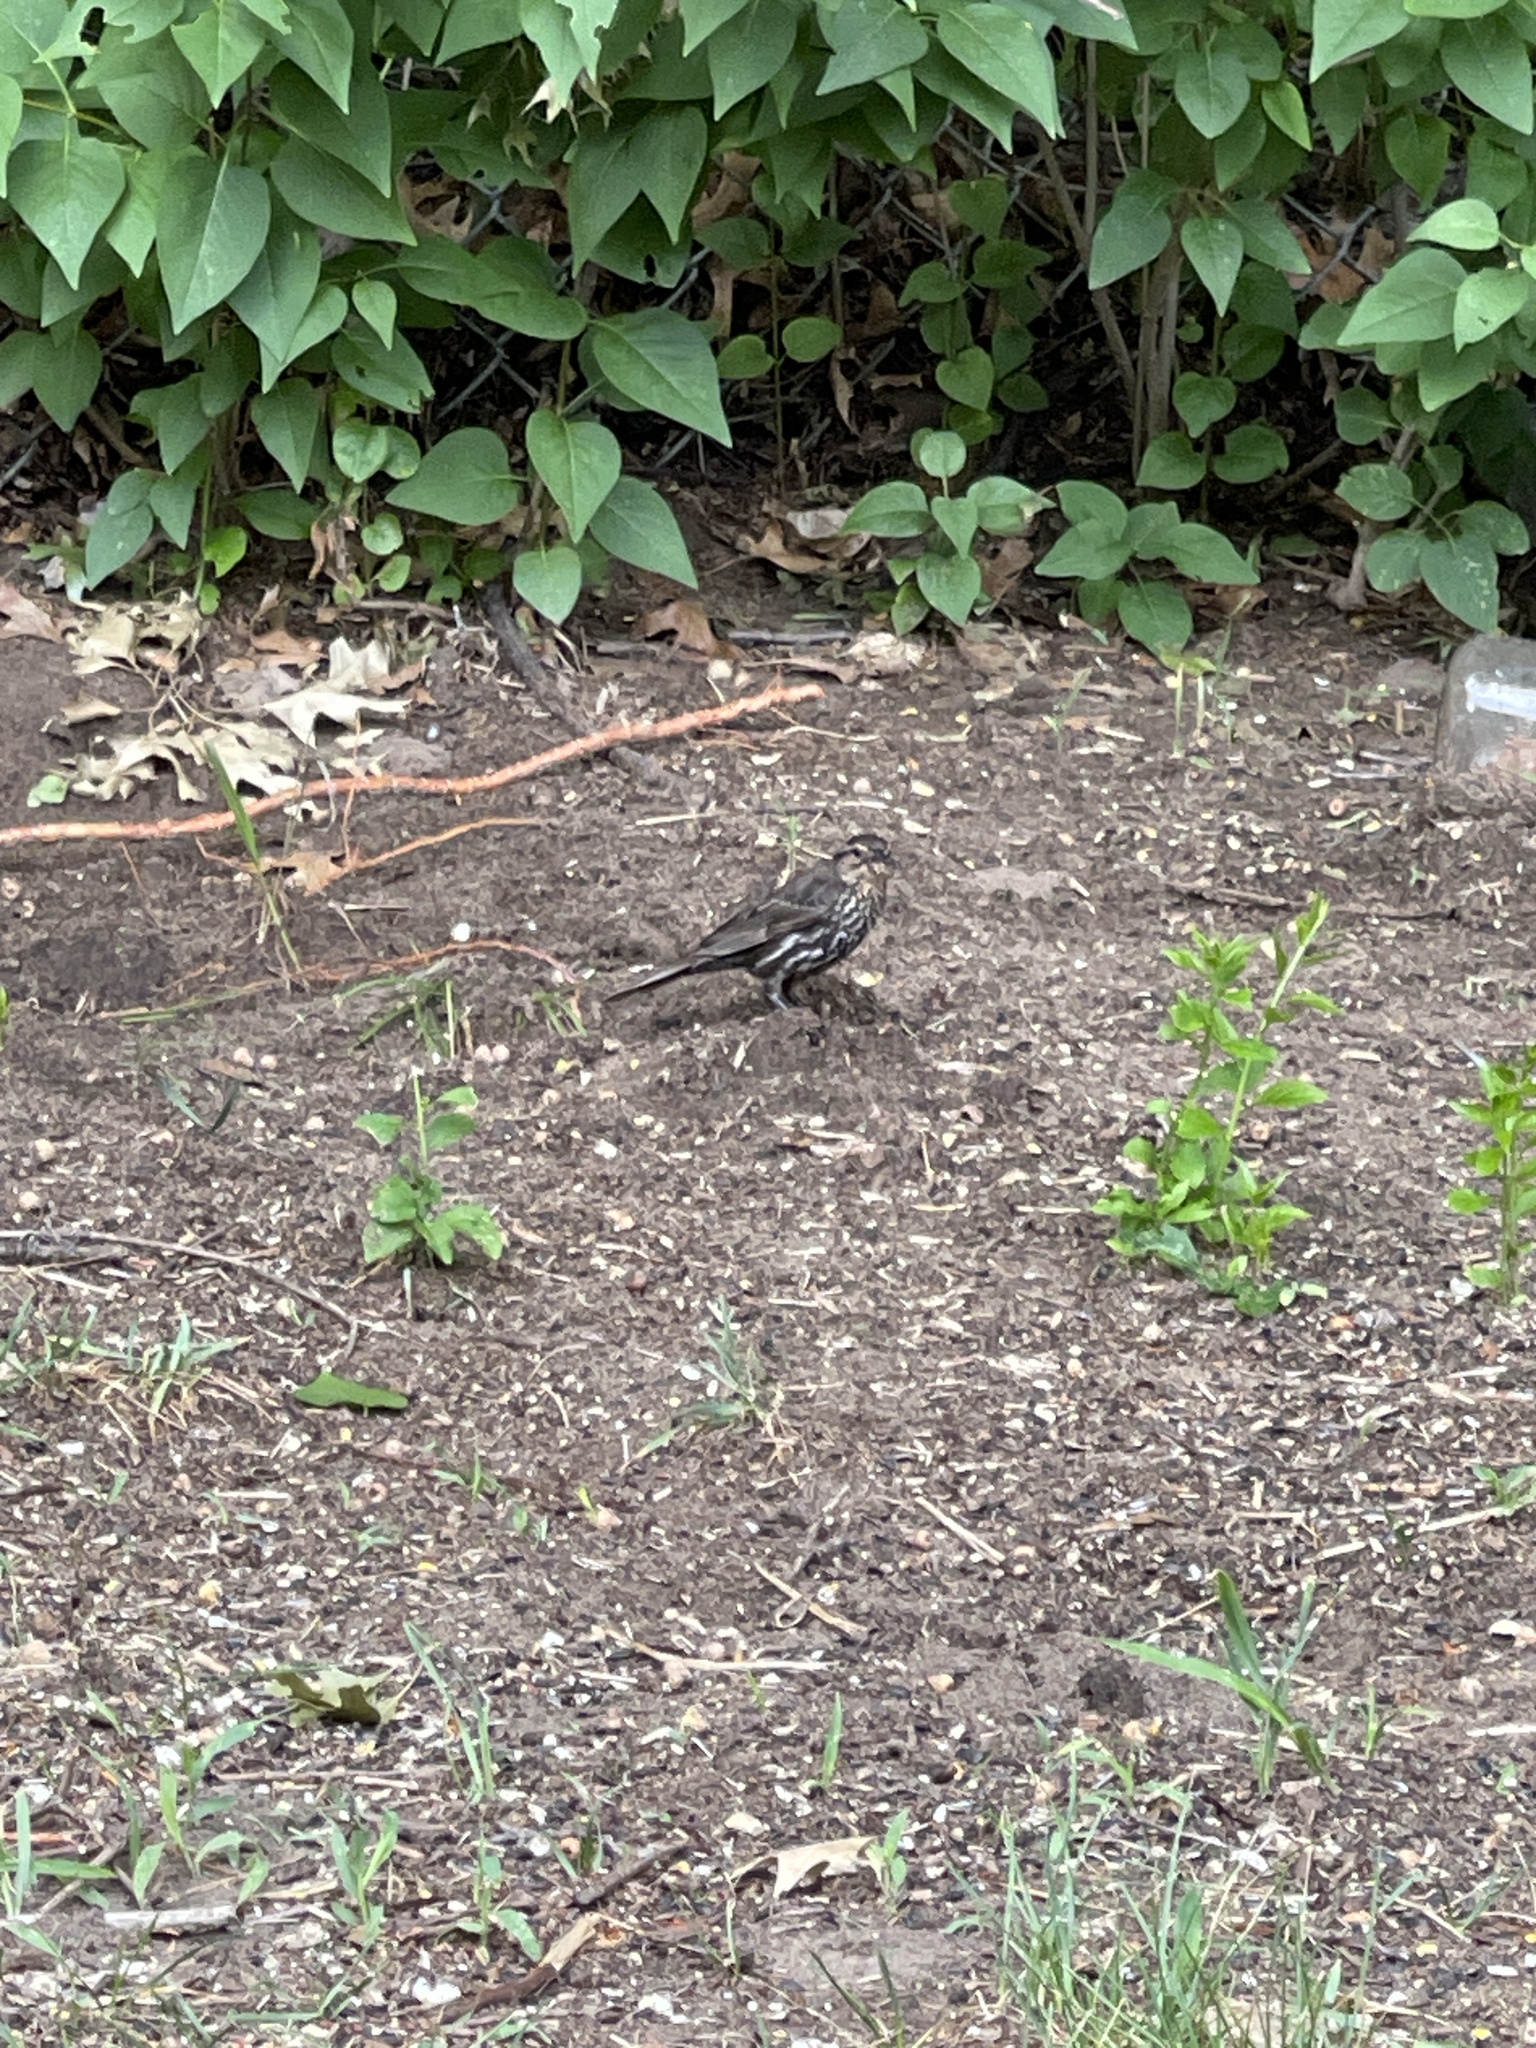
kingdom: Animalia
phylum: Chordata
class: Aves
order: Passeriformes
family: Icteridae
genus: Agelaius
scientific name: Agelaius phoeniceus
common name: Red-winged blackbird
